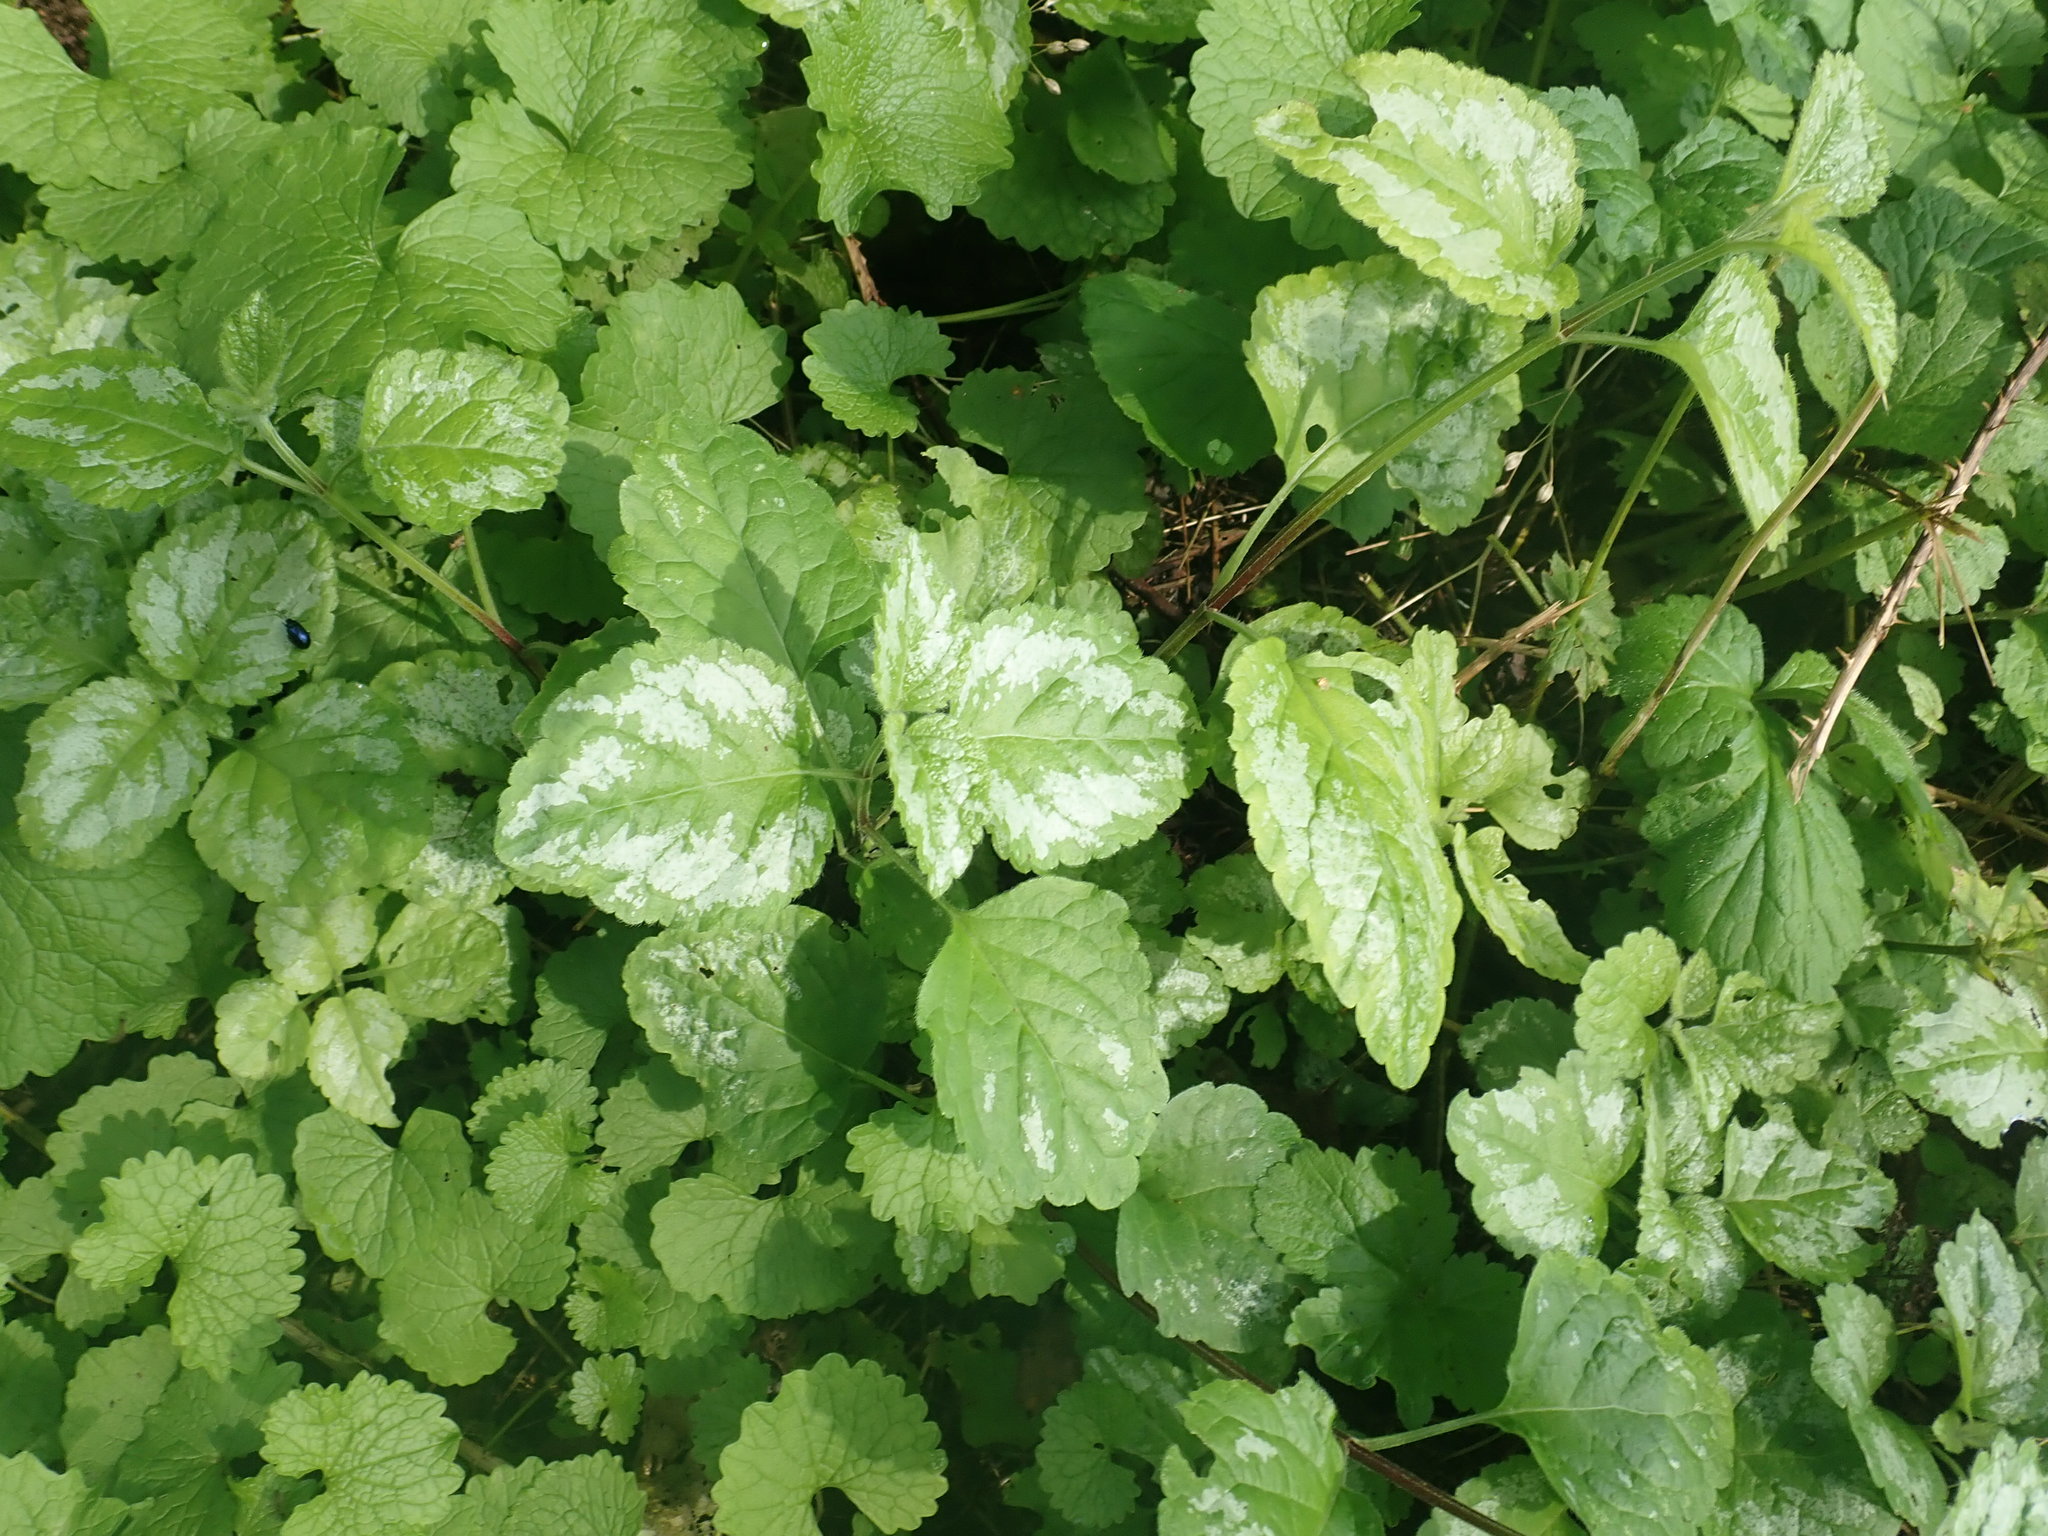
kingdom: Plantae
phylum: Tracheophyta
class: Magnoliopsida
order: Lamiales
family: Lamiaceae
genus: Lamium
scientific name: Lamium galeobdolon
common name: Yellow archangel
